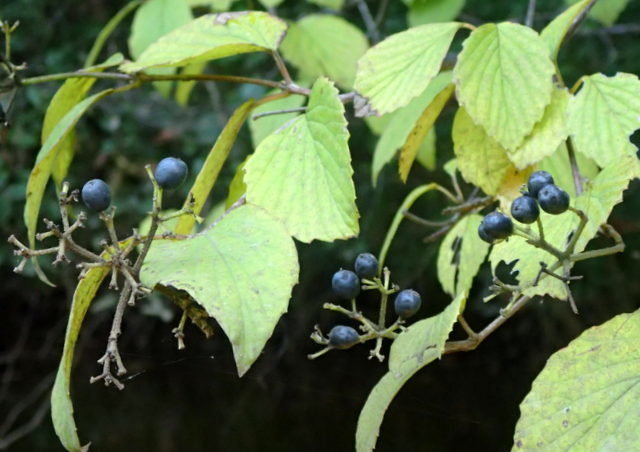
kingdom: Plantae
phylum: Tracheophyta
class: Magnoliopsida
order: Dipsacales
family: Viburnaceae
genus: Viburnum
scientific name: Viburnum scabrellum
